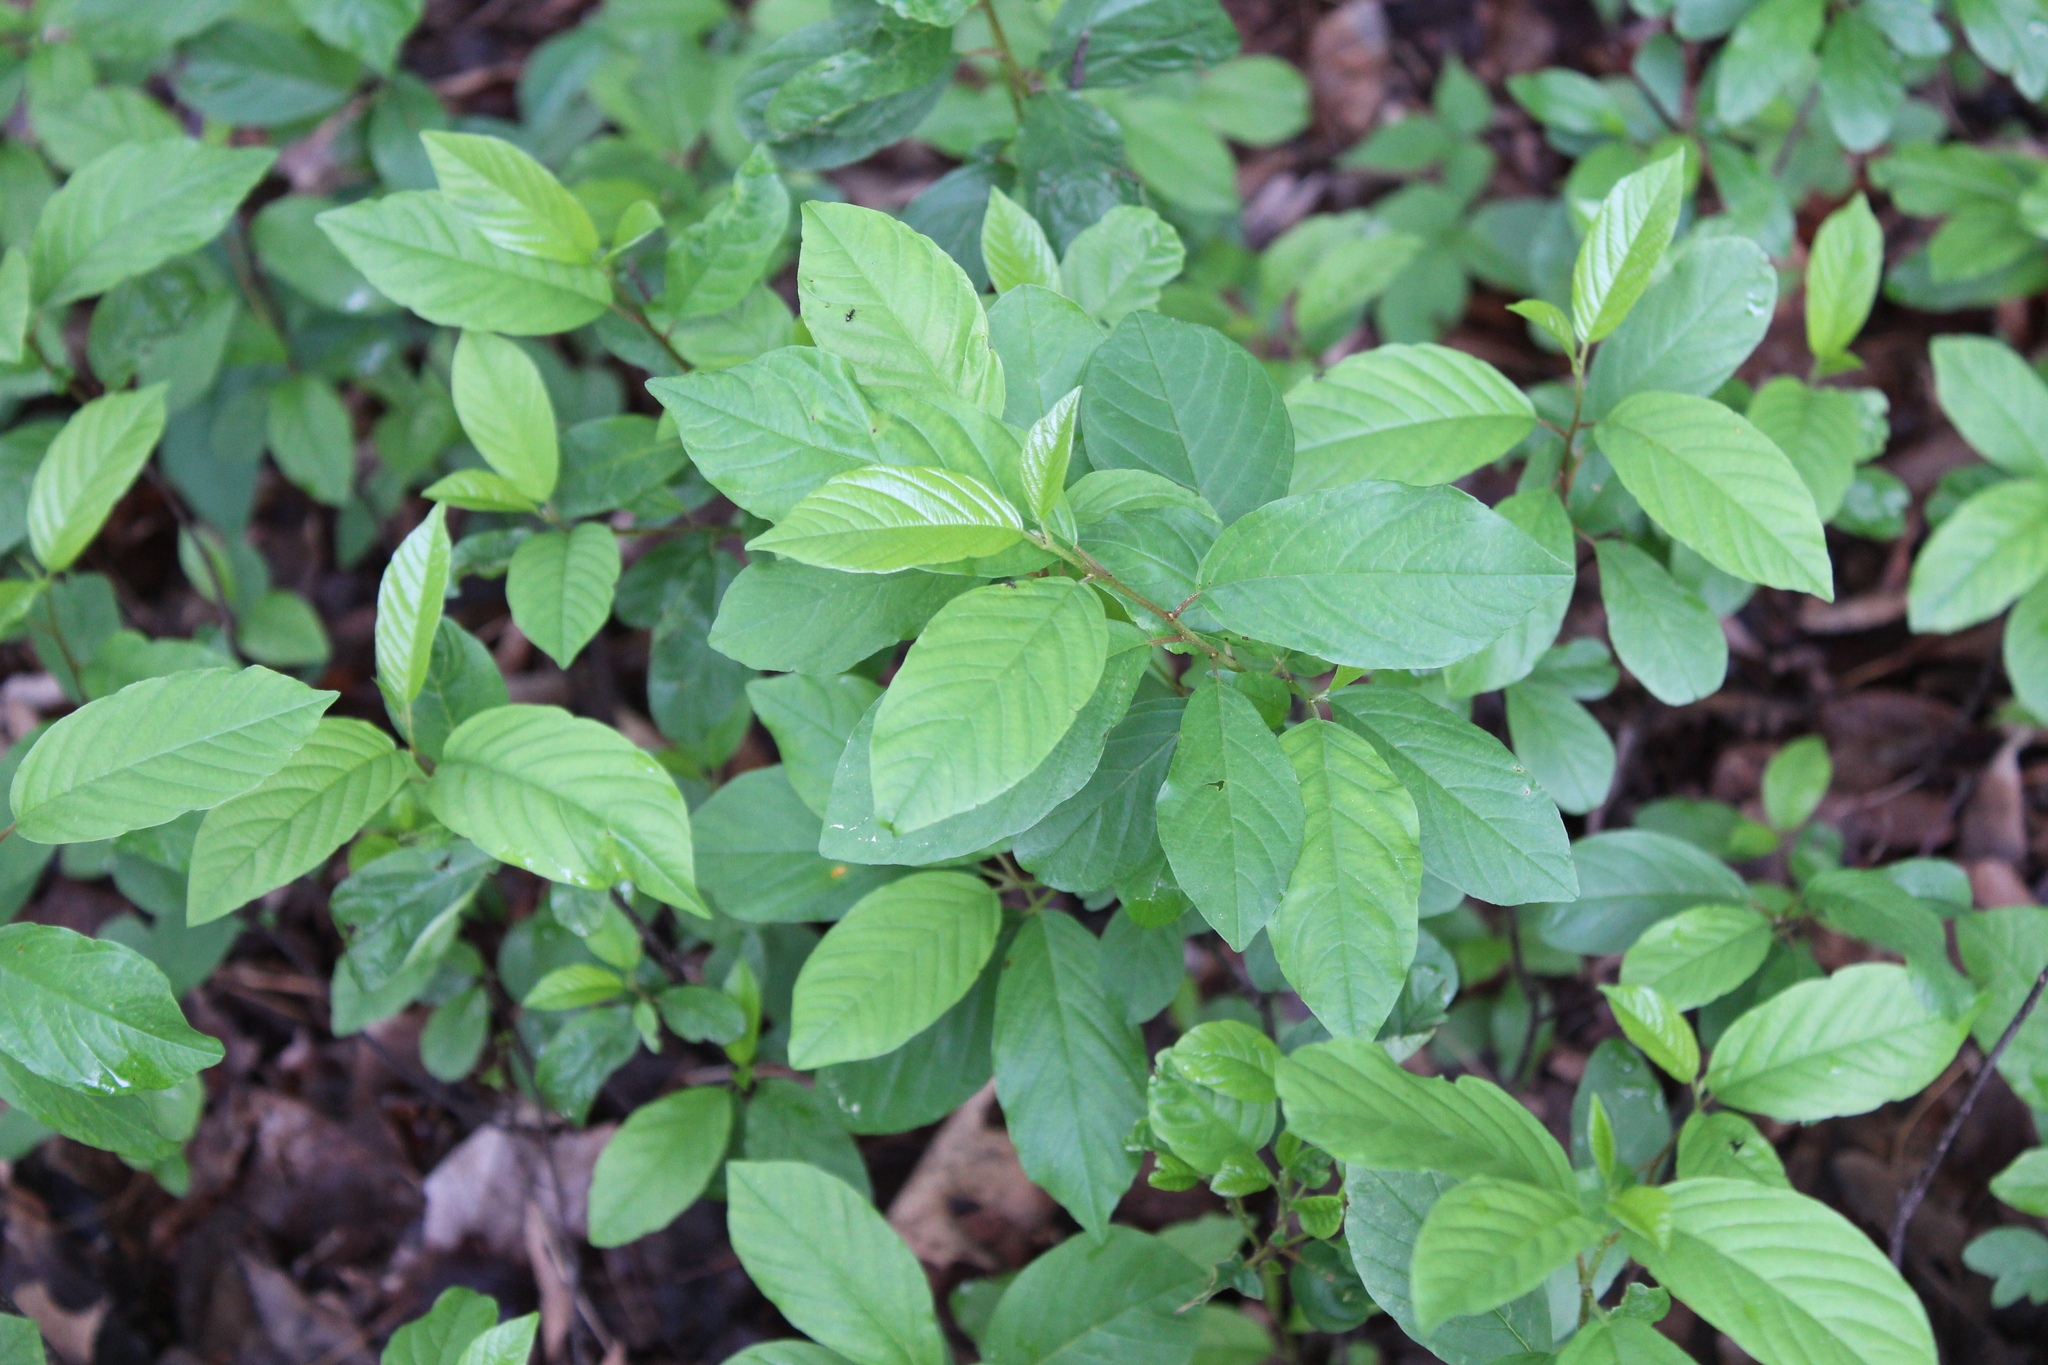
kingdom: Plantae
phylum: Tracheophyta
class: Magnoliopsida
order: Rosales
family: Rhamnaceae
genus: Frangula
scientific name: Frangula alnus
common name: Alder buckthorn
